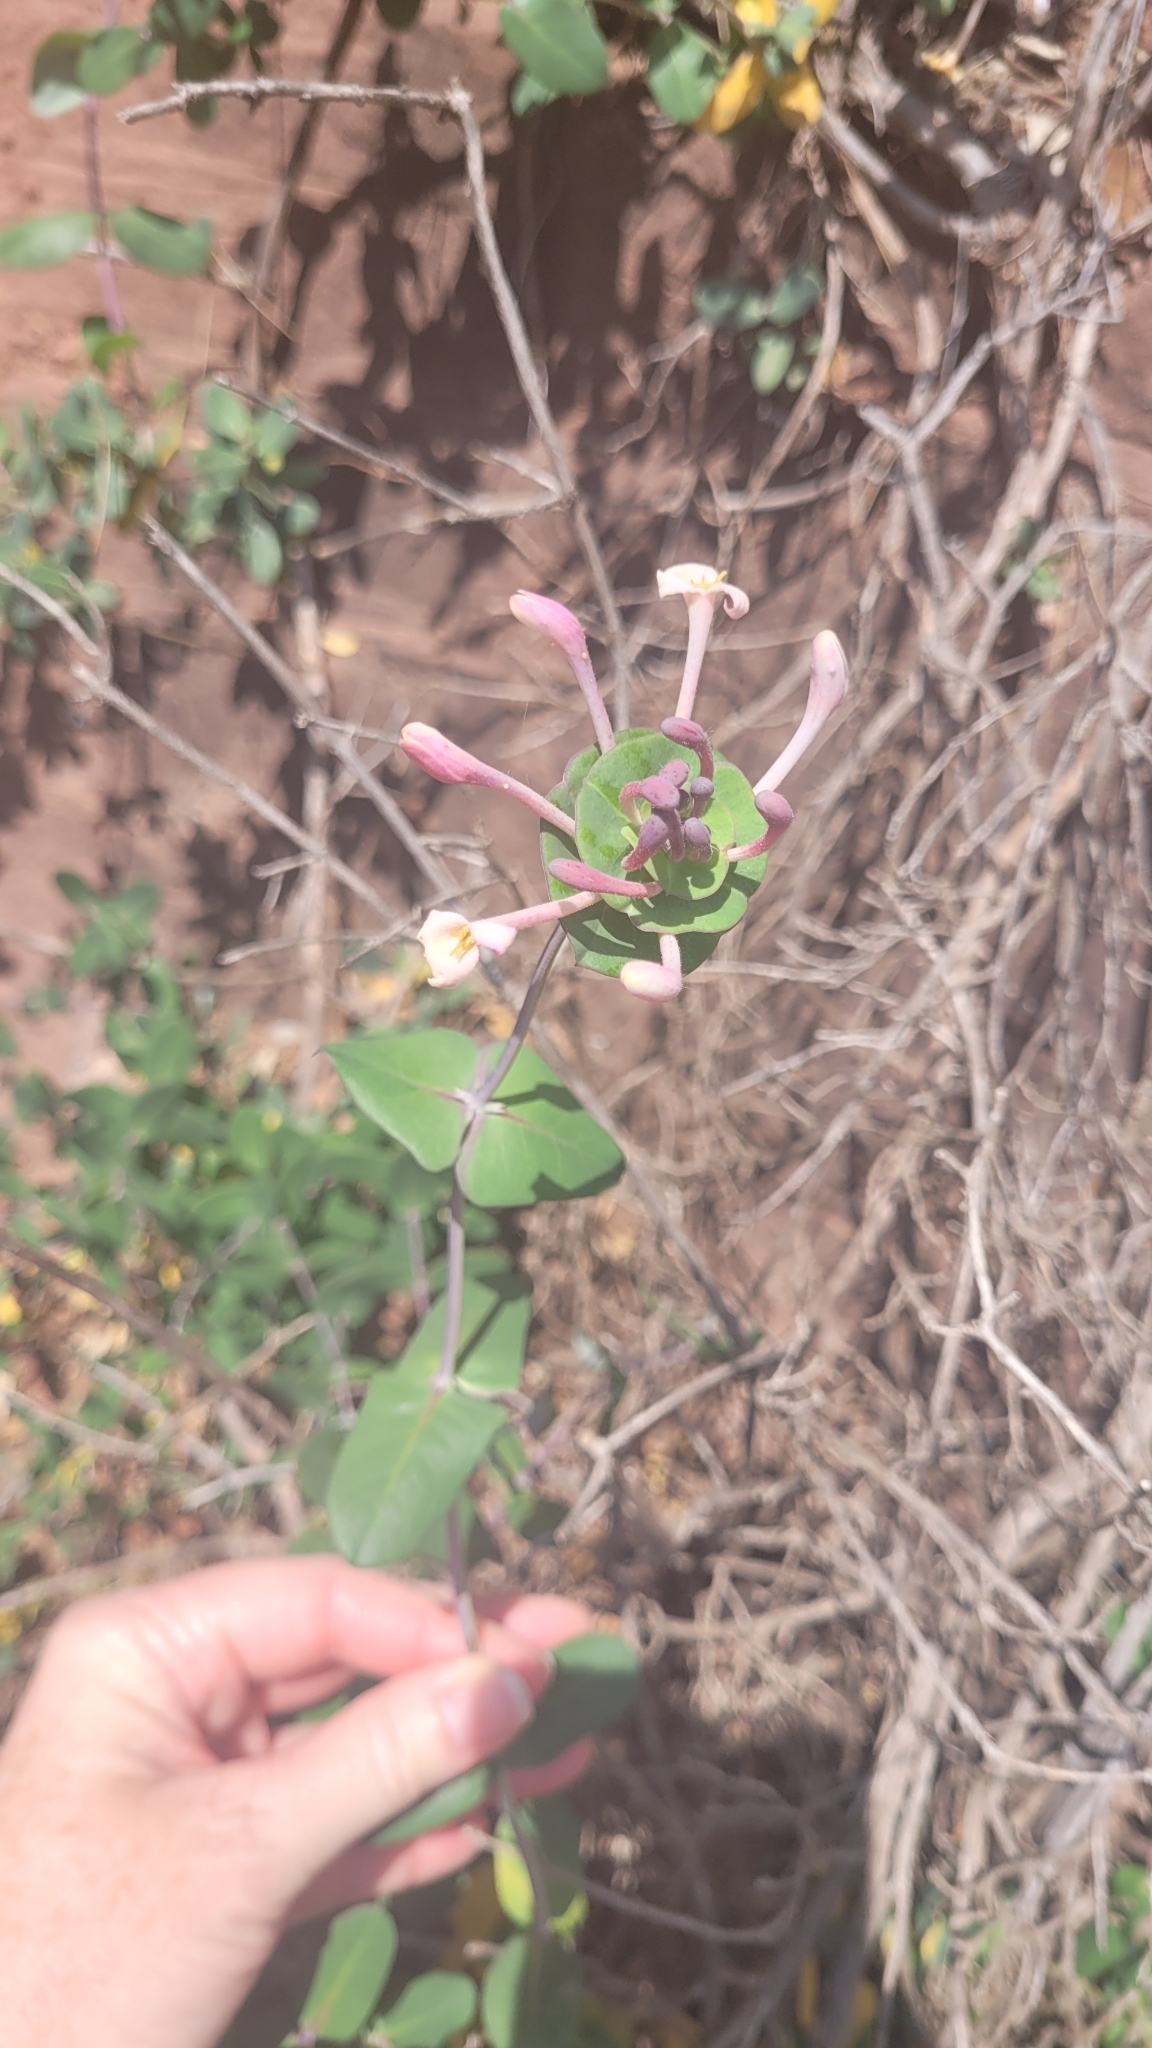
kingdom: Plantae
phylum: Tracheophyta
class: Magnoliopsida
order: Dipsacales
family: Caprifoliaceae
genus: Lonicera
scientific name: Lonicera implexa
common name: Minorca honeysuckle
